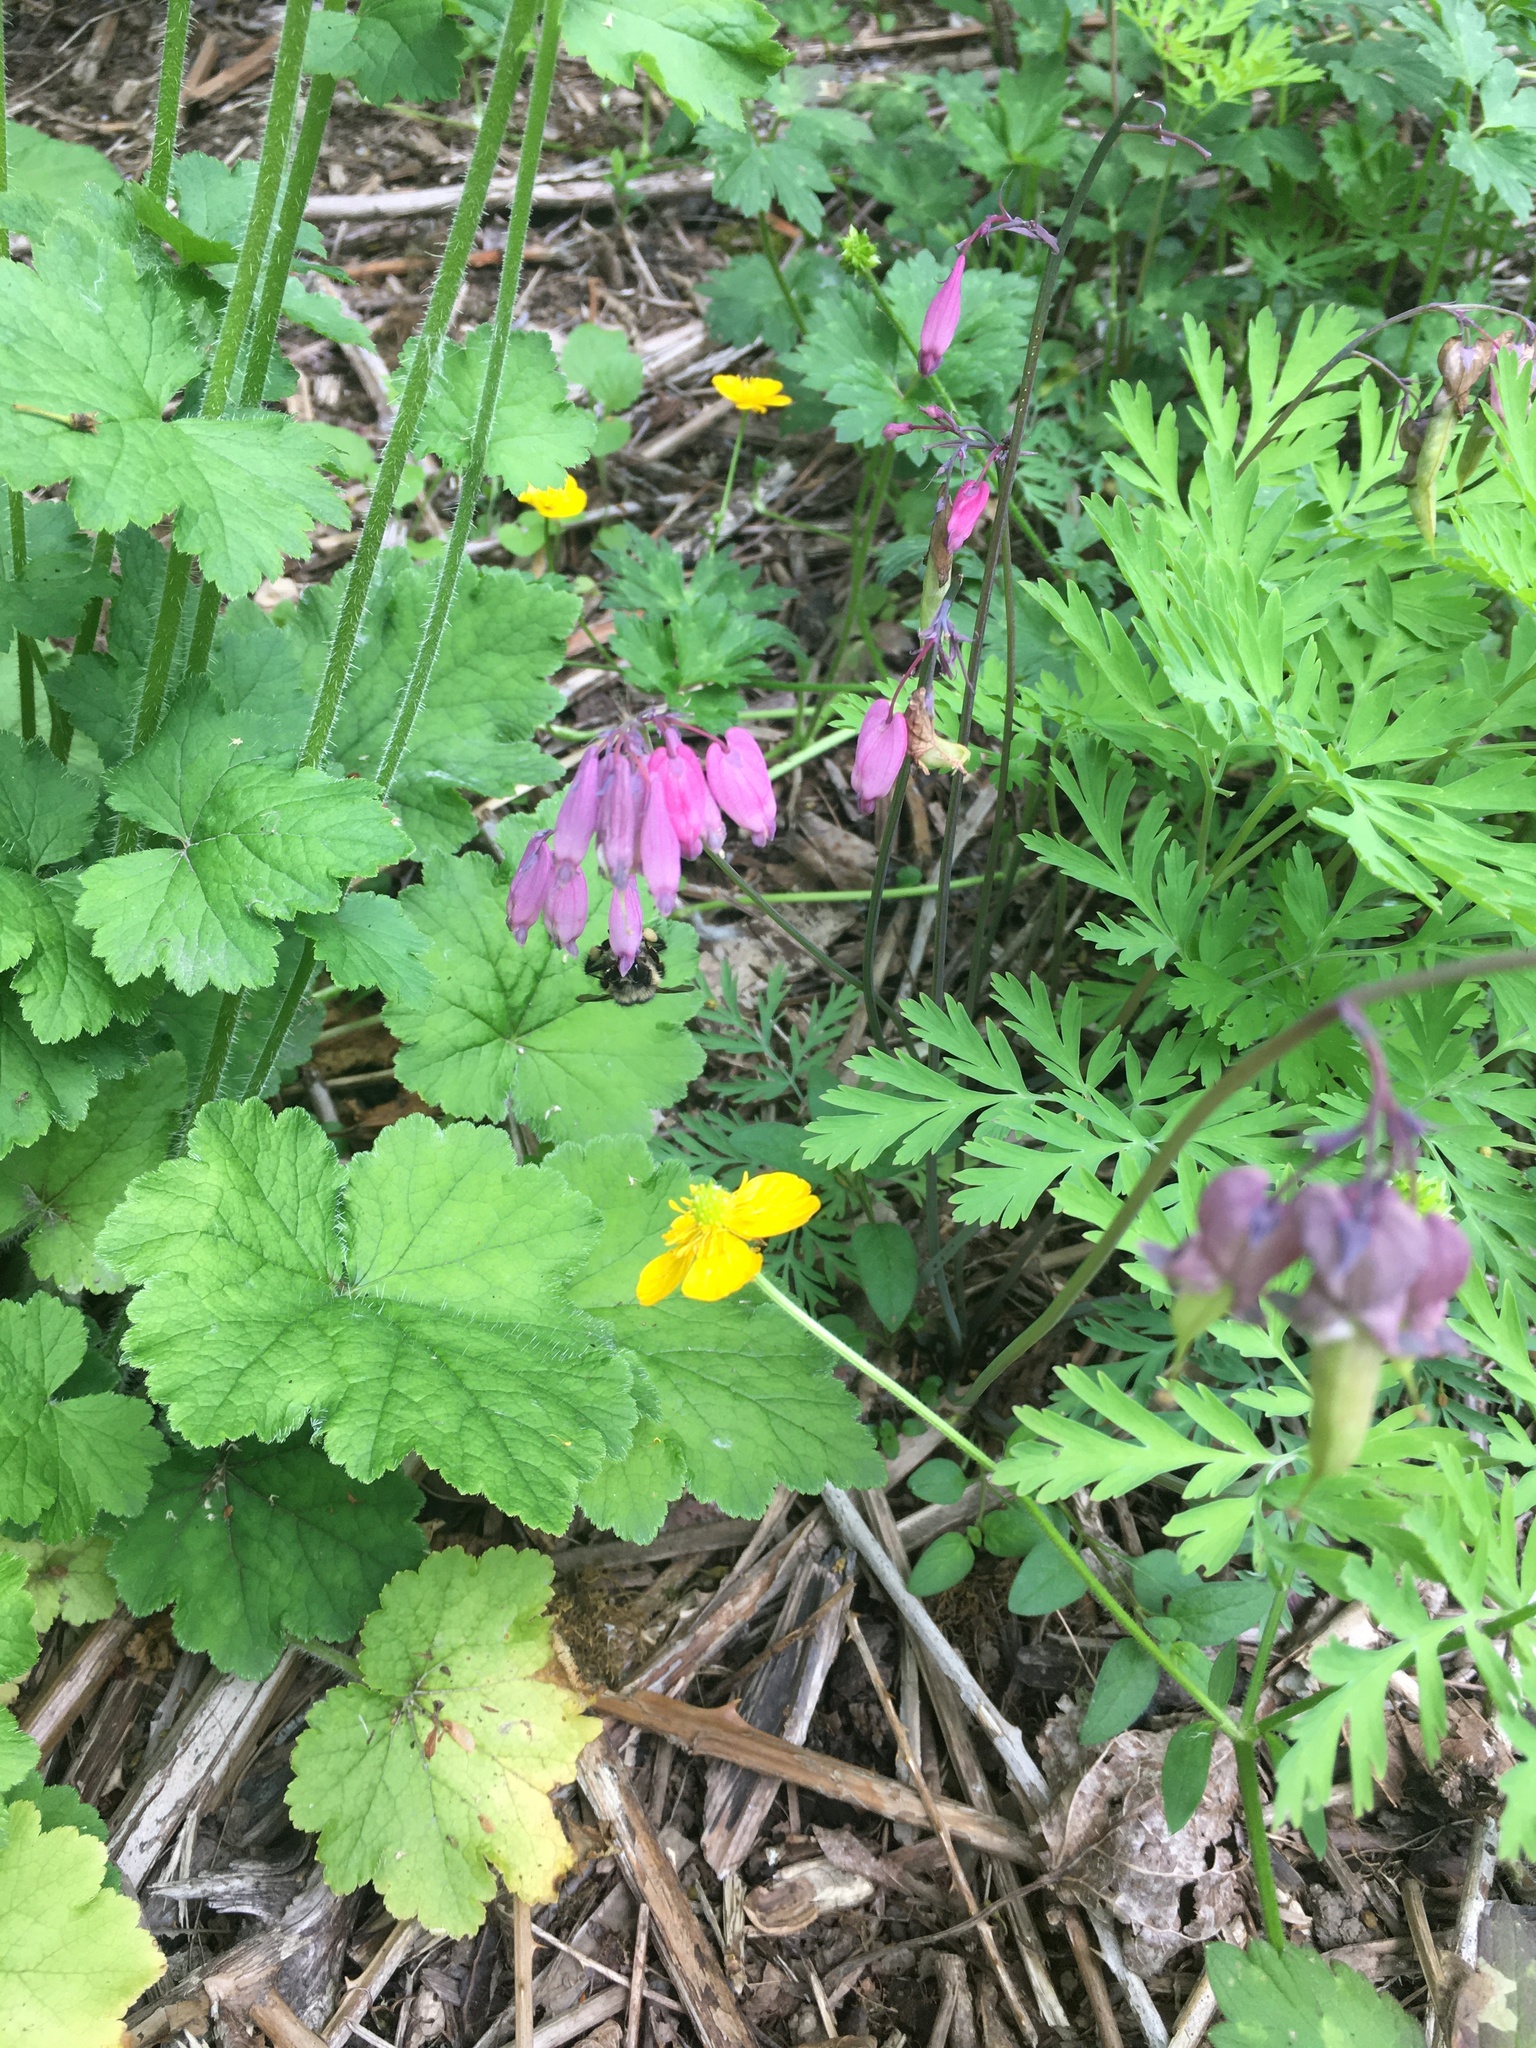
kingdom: Plantae
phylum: Tracheophyta
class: Magnoliopsida
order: Ranunculales
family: Papaveraceae
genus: Dicentra
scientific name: Dicentra formosa
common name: Bleeding-heart
